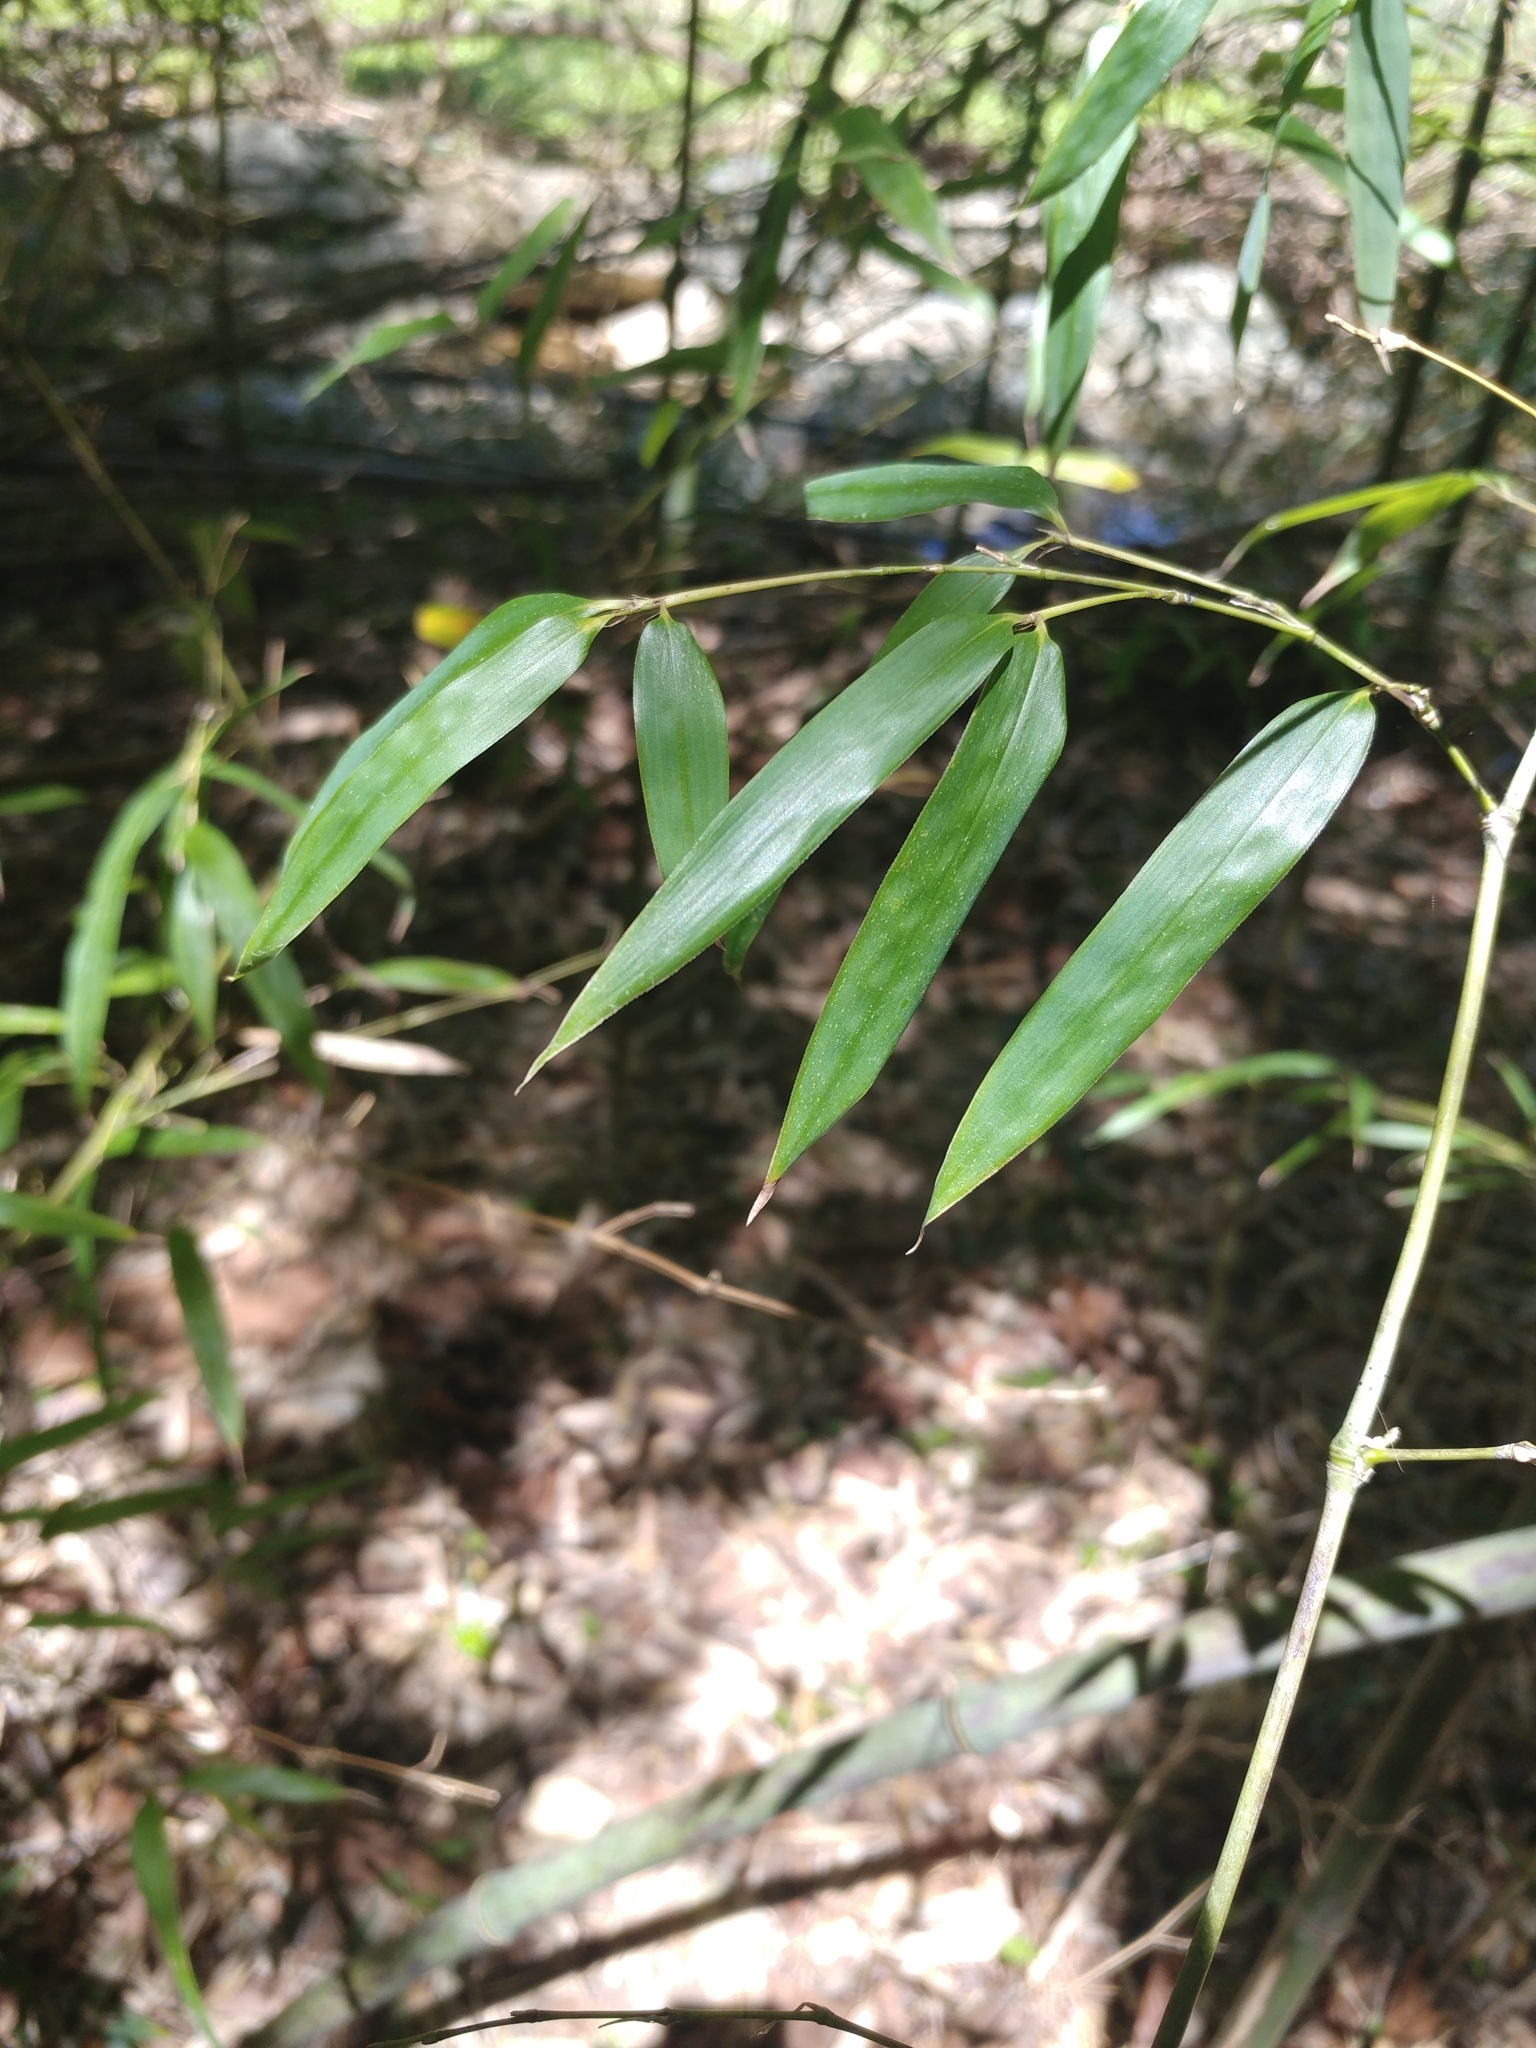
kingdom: Plantae
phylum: Tracheophyta
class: Liliopsida
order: Poales
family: Poaceae
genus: Phyllostachys
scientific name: Phyllostachys nigra
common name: Black bamboo
